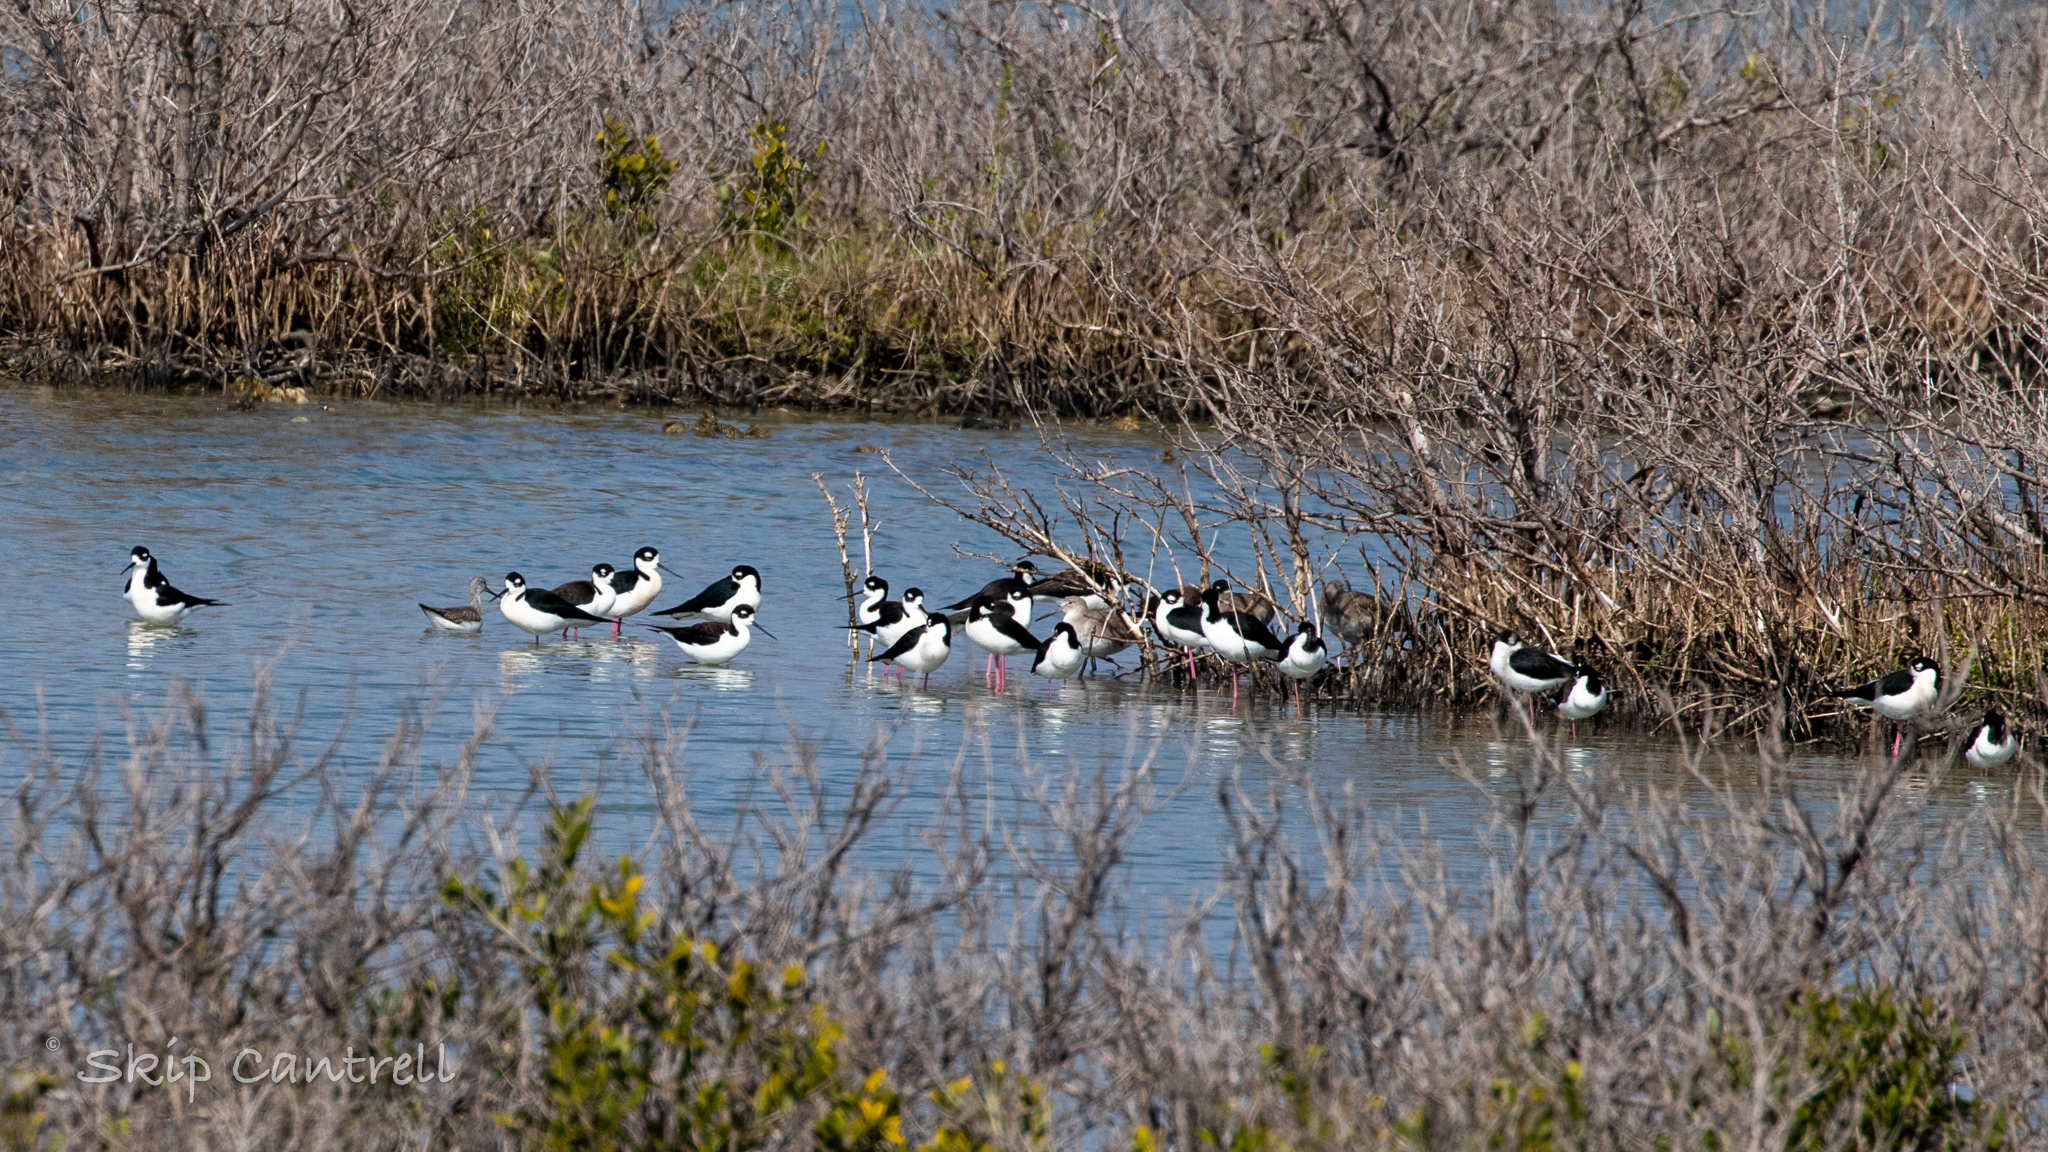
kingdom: Animalia
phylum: Chordata
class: Aves
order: Charadriiformes
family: Recurvirostridae
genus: Himantopus
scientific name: Himantopus mexicanus
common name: Black-necked stilt
